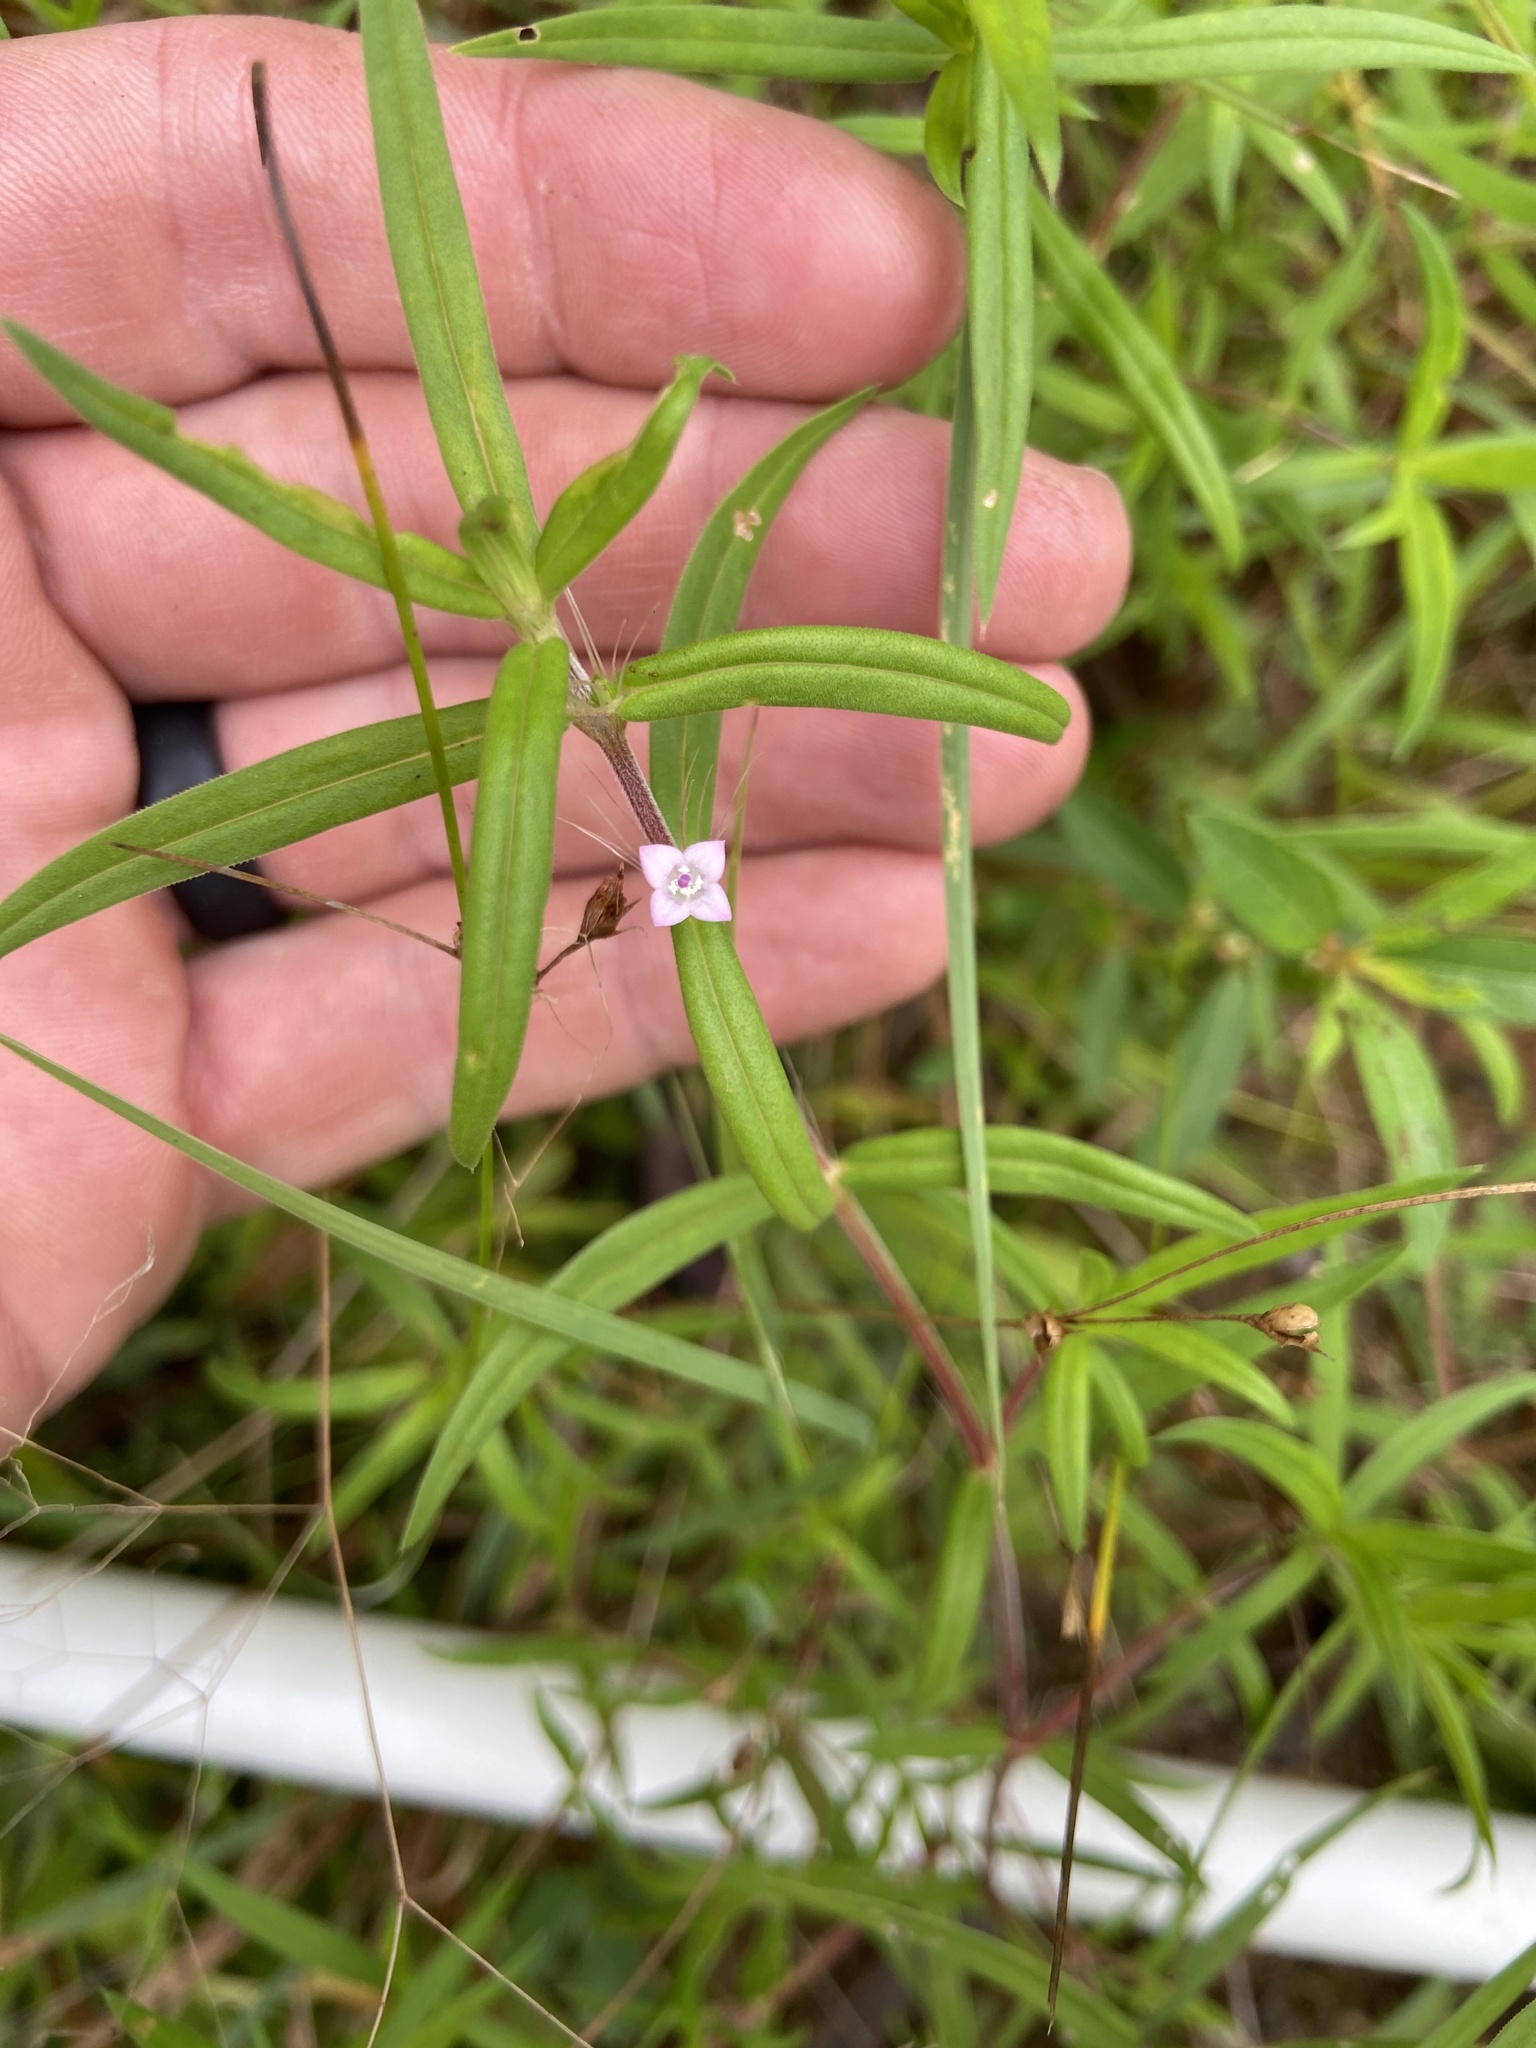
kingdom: Plantae
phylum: Tracheophyta
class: Magnoliopsida
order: Gentianales
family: Rubiaceae
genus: Hexasepalum
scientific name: Hexasepalum teres
